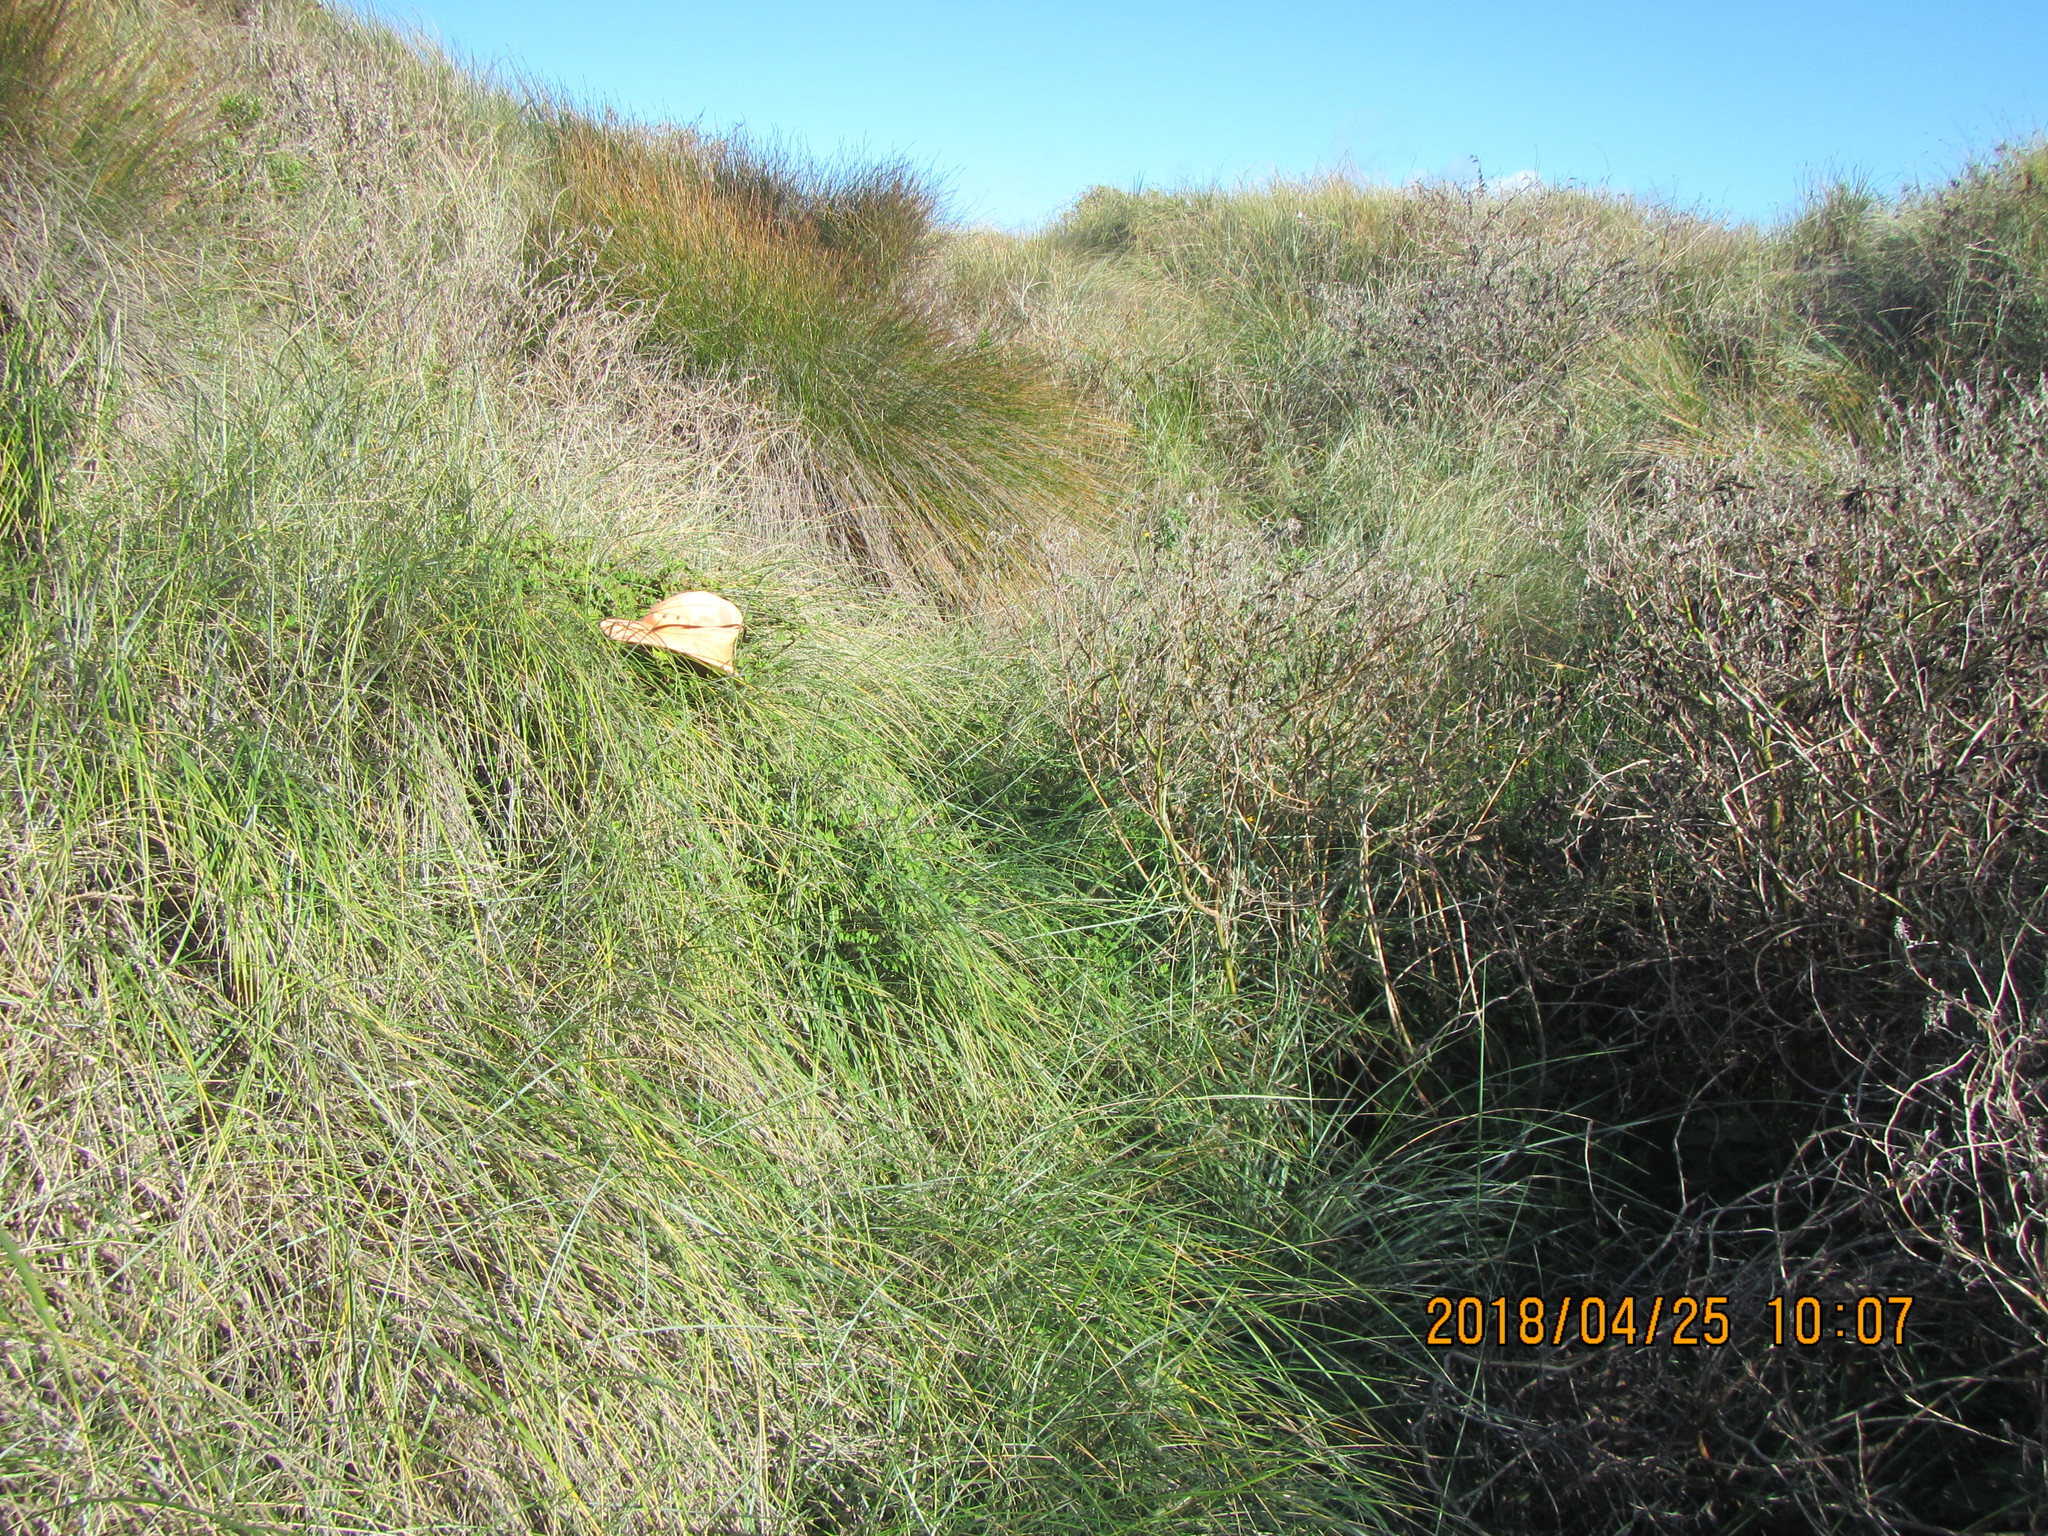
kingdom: Plantae
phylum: Tracheophyta
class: Magnoliopsida
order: Caryophyllales
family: Aizoaceae
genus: Tetragonia
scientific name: Tetragonia implexicoma
